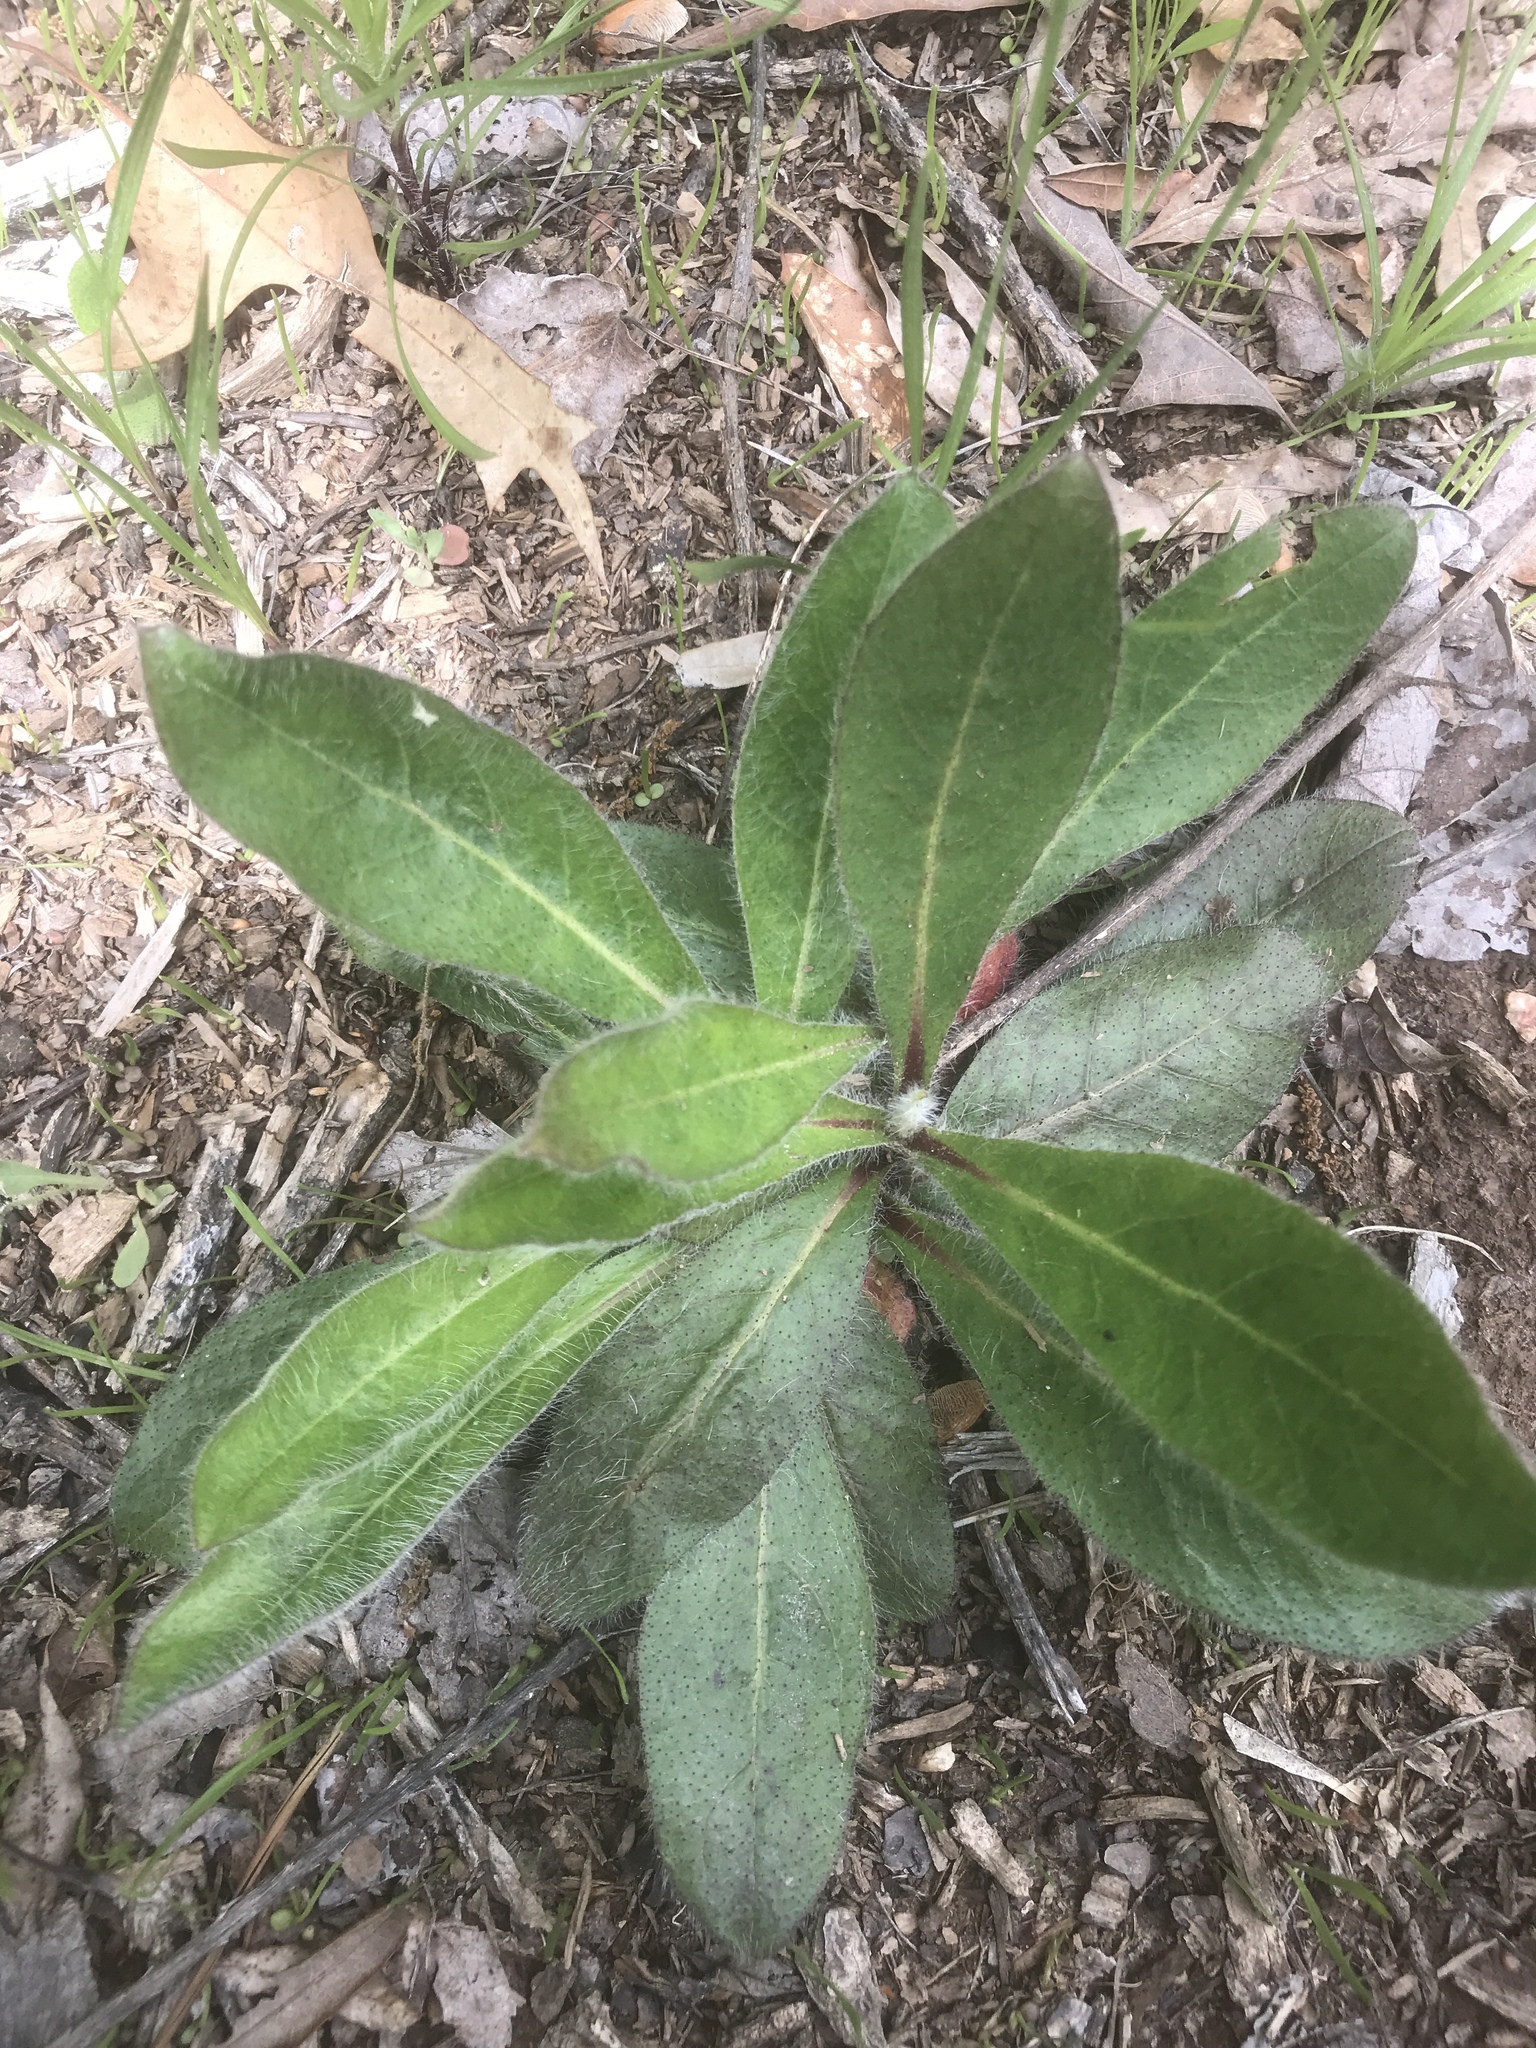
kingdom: Plantae
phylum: Tracheophyta
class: Magnoliopsida
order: Asterales
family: Asteraceae
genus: Hieracium
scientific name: Hieracium gronovii
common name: Beaked hawkweed
